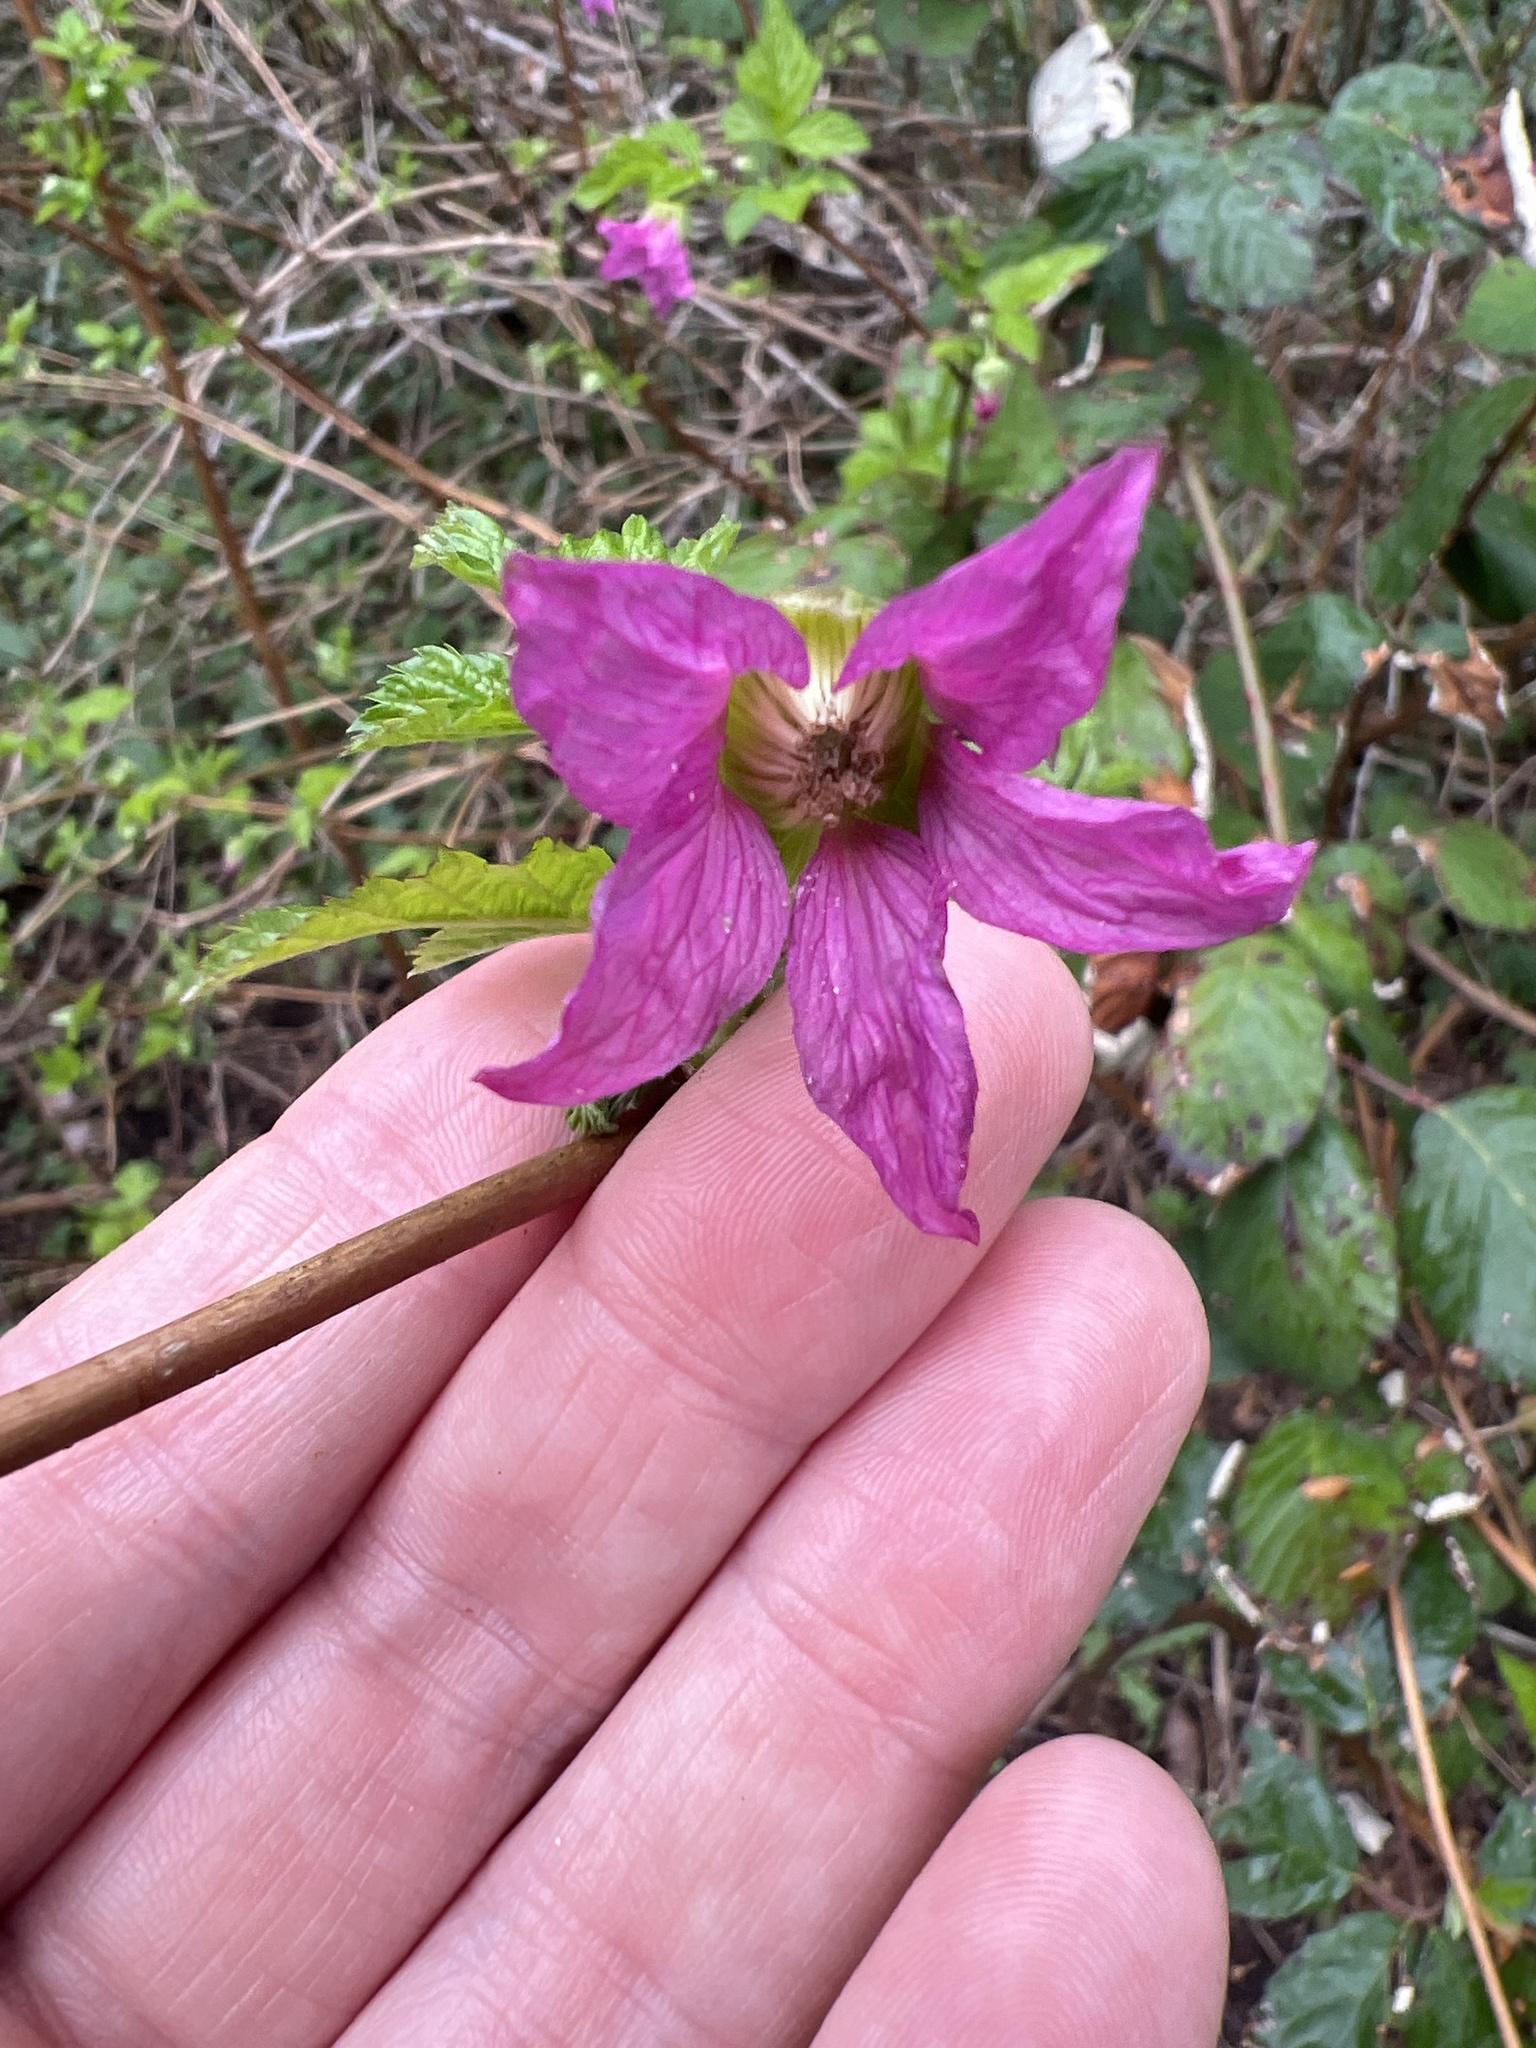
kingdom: Plantae
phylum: Tracheophyta
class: Magnoliopsida
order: Rosales
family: Rosaceae
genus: Rubus
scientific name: Rubus spectabilis
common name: Salmonberry
